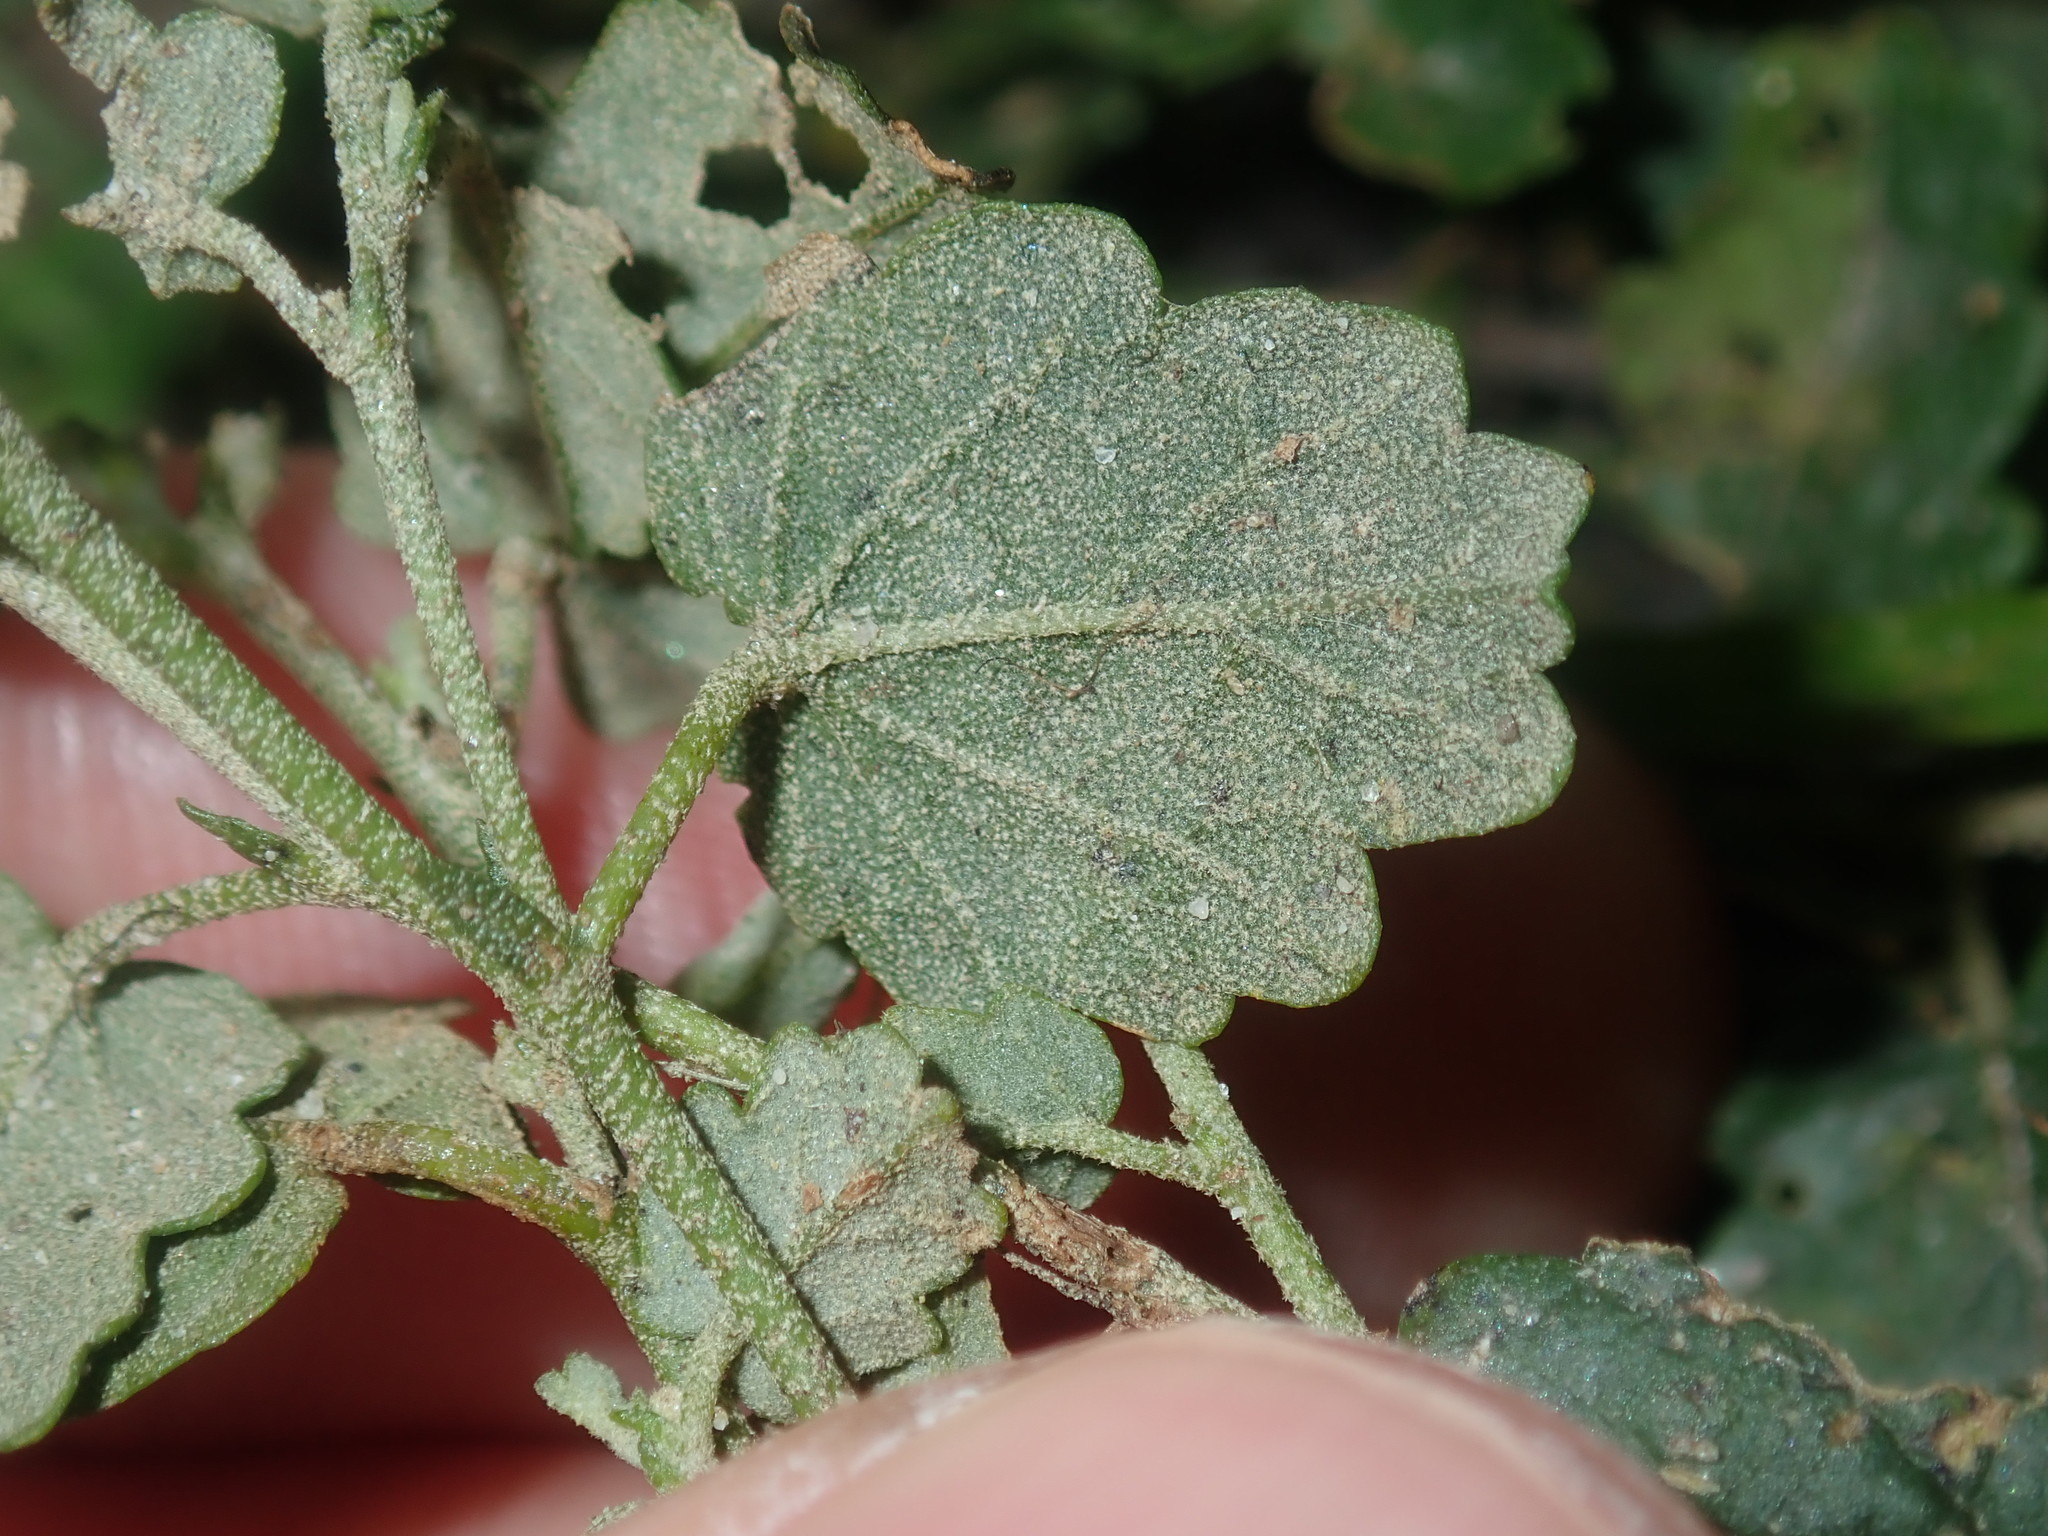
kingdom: Plantae
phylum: Tracheophyta
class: Magnoliopsida
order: Malvales
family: Malvaceae
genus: Sida
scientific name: Sida corrugata
